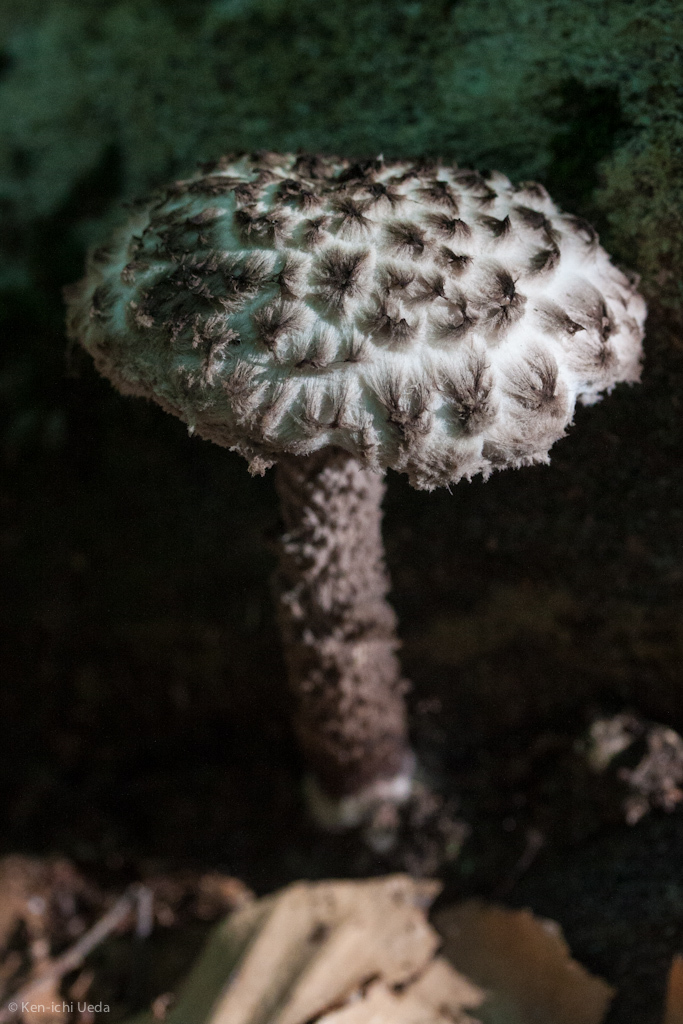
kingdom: Fungi
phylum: Basidiomycota
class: Agaricomycetes
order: Boletales
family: Boletaceae
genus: Strobilomyces
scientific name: Strobilomyces strobilaceus
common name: Old man of the woods
